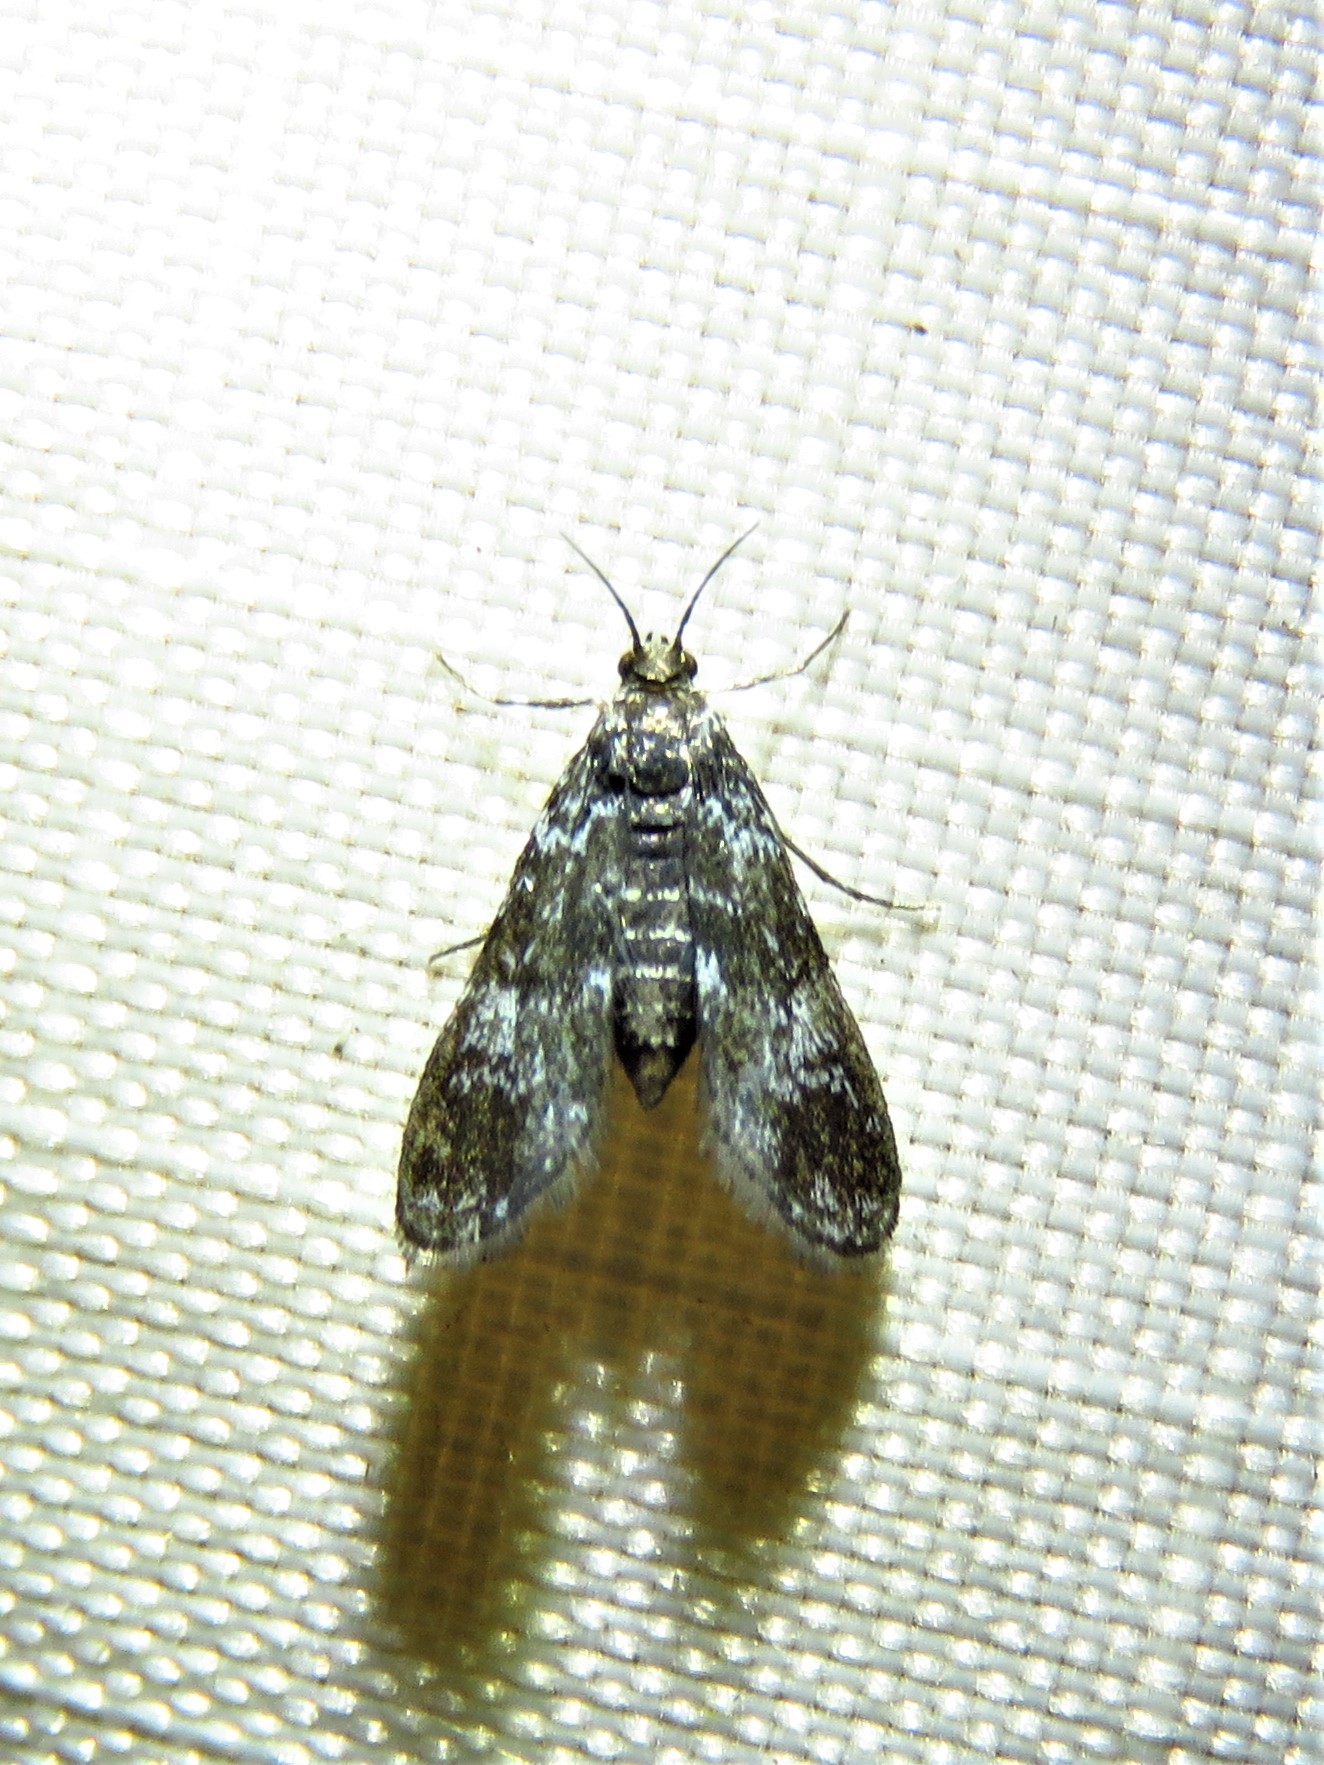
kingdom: Animalia
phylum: Arthropoda
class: Insecta
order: Lepidoptera
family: Crambidae
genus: Elophila
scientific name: Elophila tinealis
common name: Black duckweed moth
